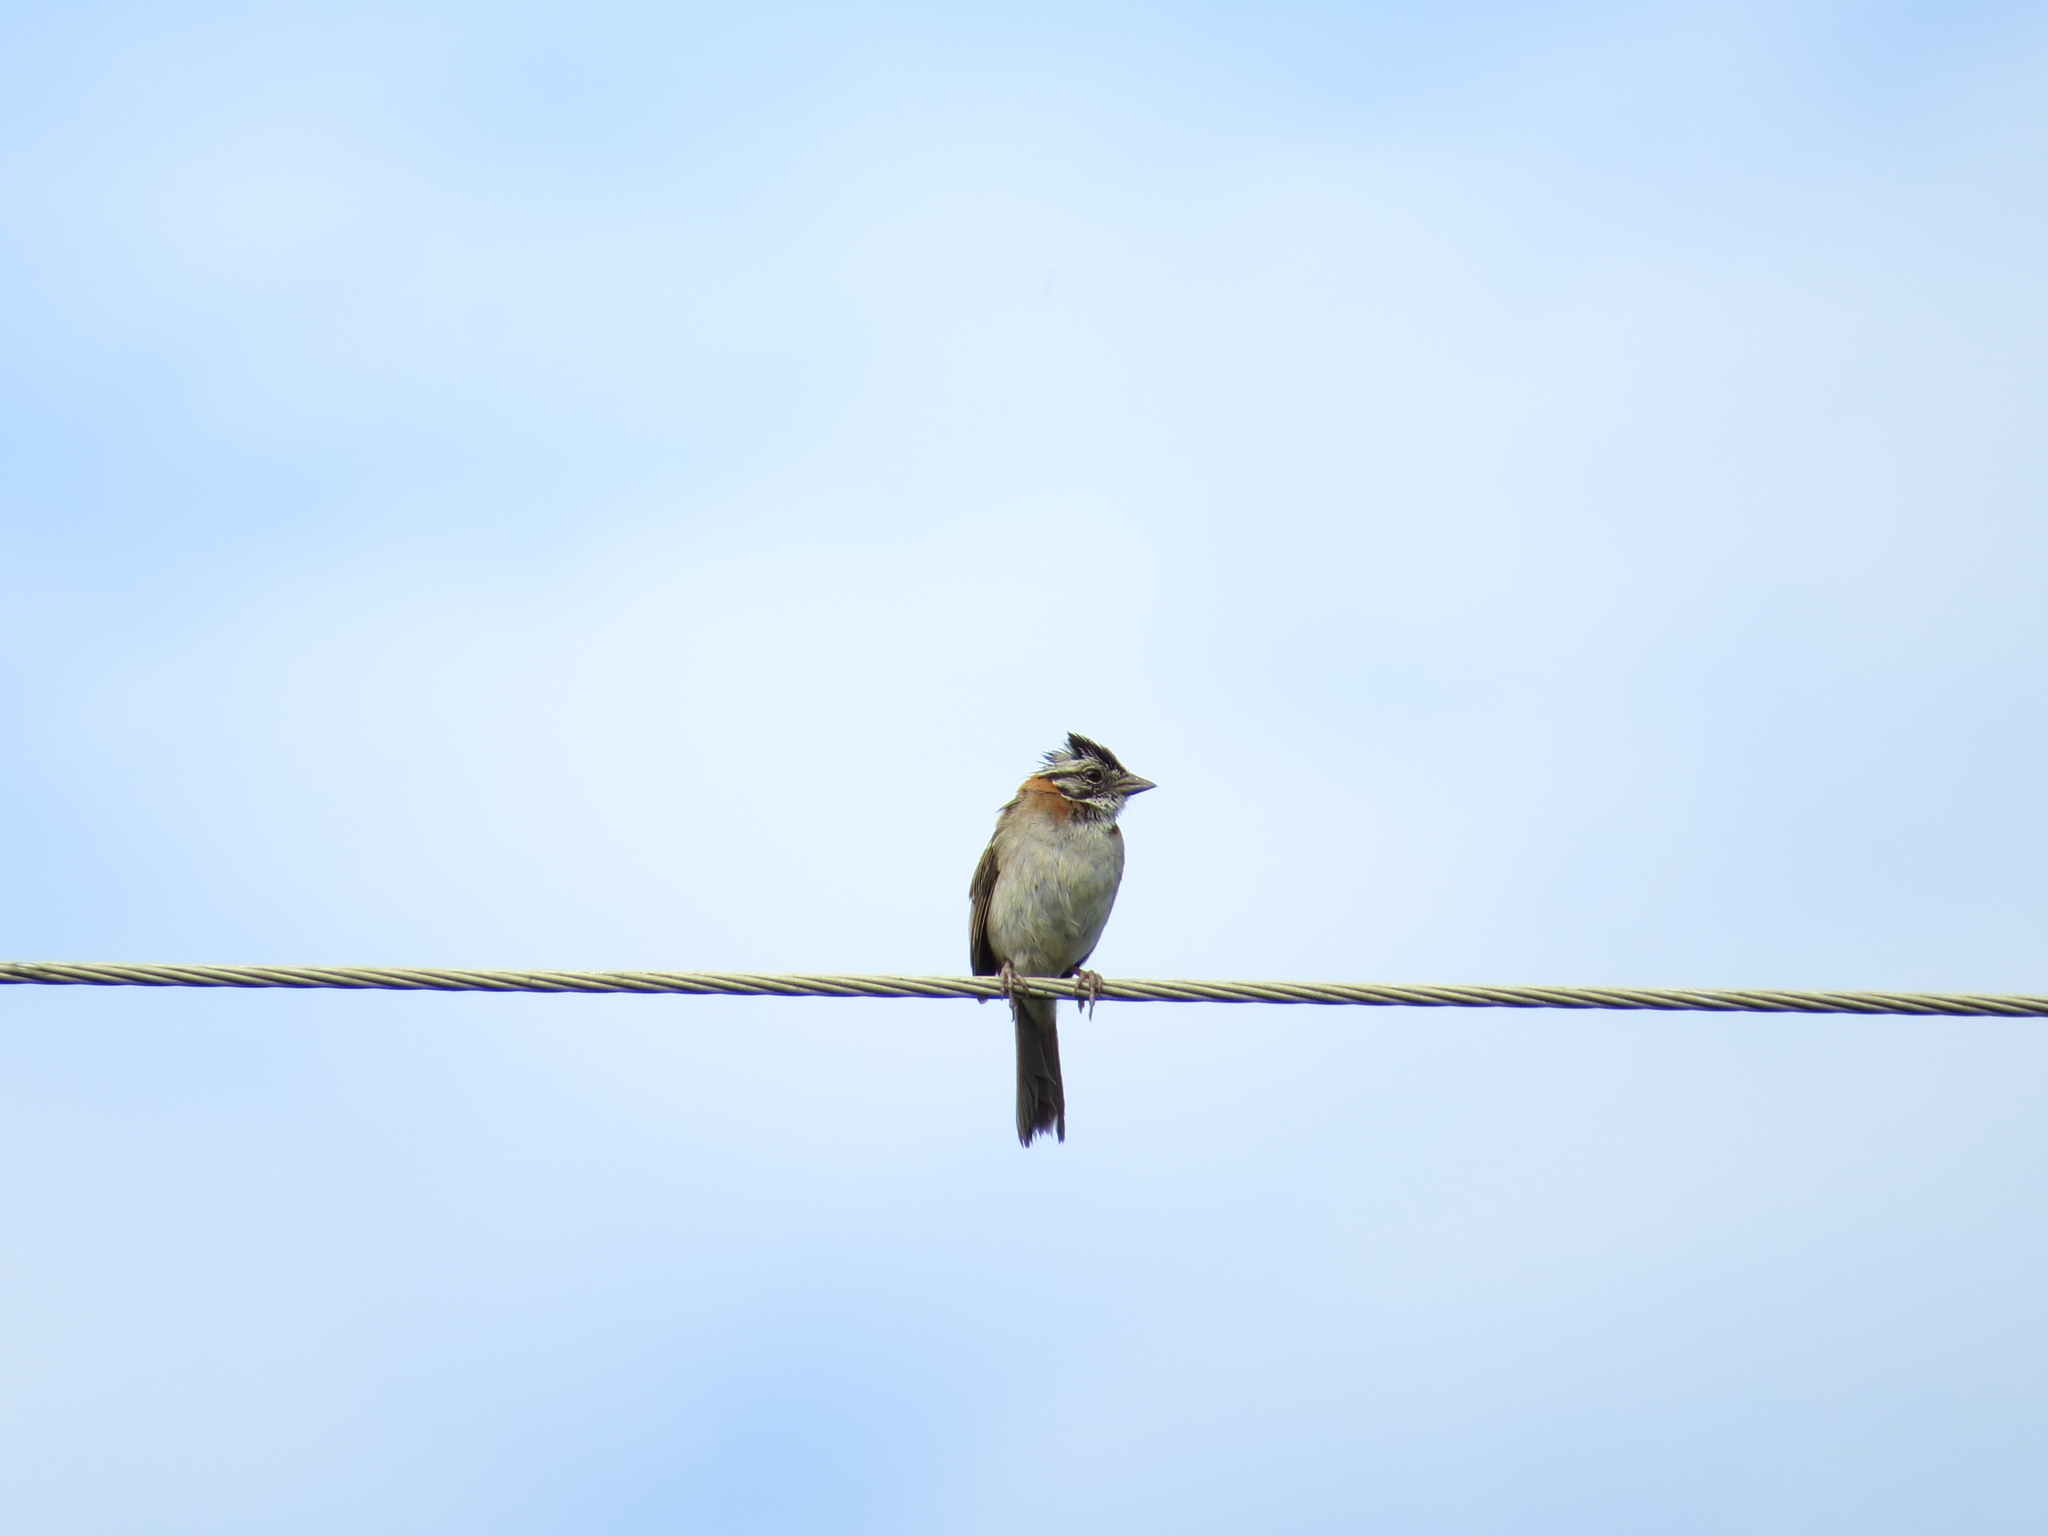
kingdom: Animalia
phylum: Chordata
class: Aves
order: Passeriformes
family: Passerellidae
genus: Zonotrichia
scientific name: Zonotrichia capensis
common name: Rufous-collared sparrow
